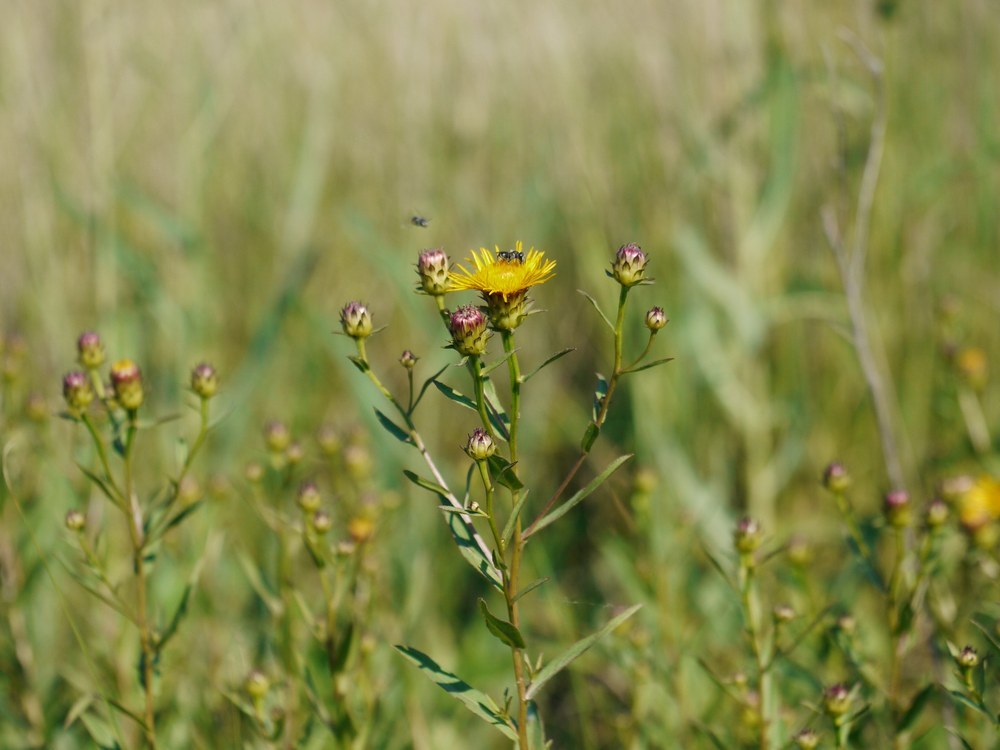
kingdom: Plantae
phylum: Tracheophyta
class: Magnoliopsida
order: Asterales
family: Asteraceae
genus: Pentanema
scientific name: Pentanema asperum
